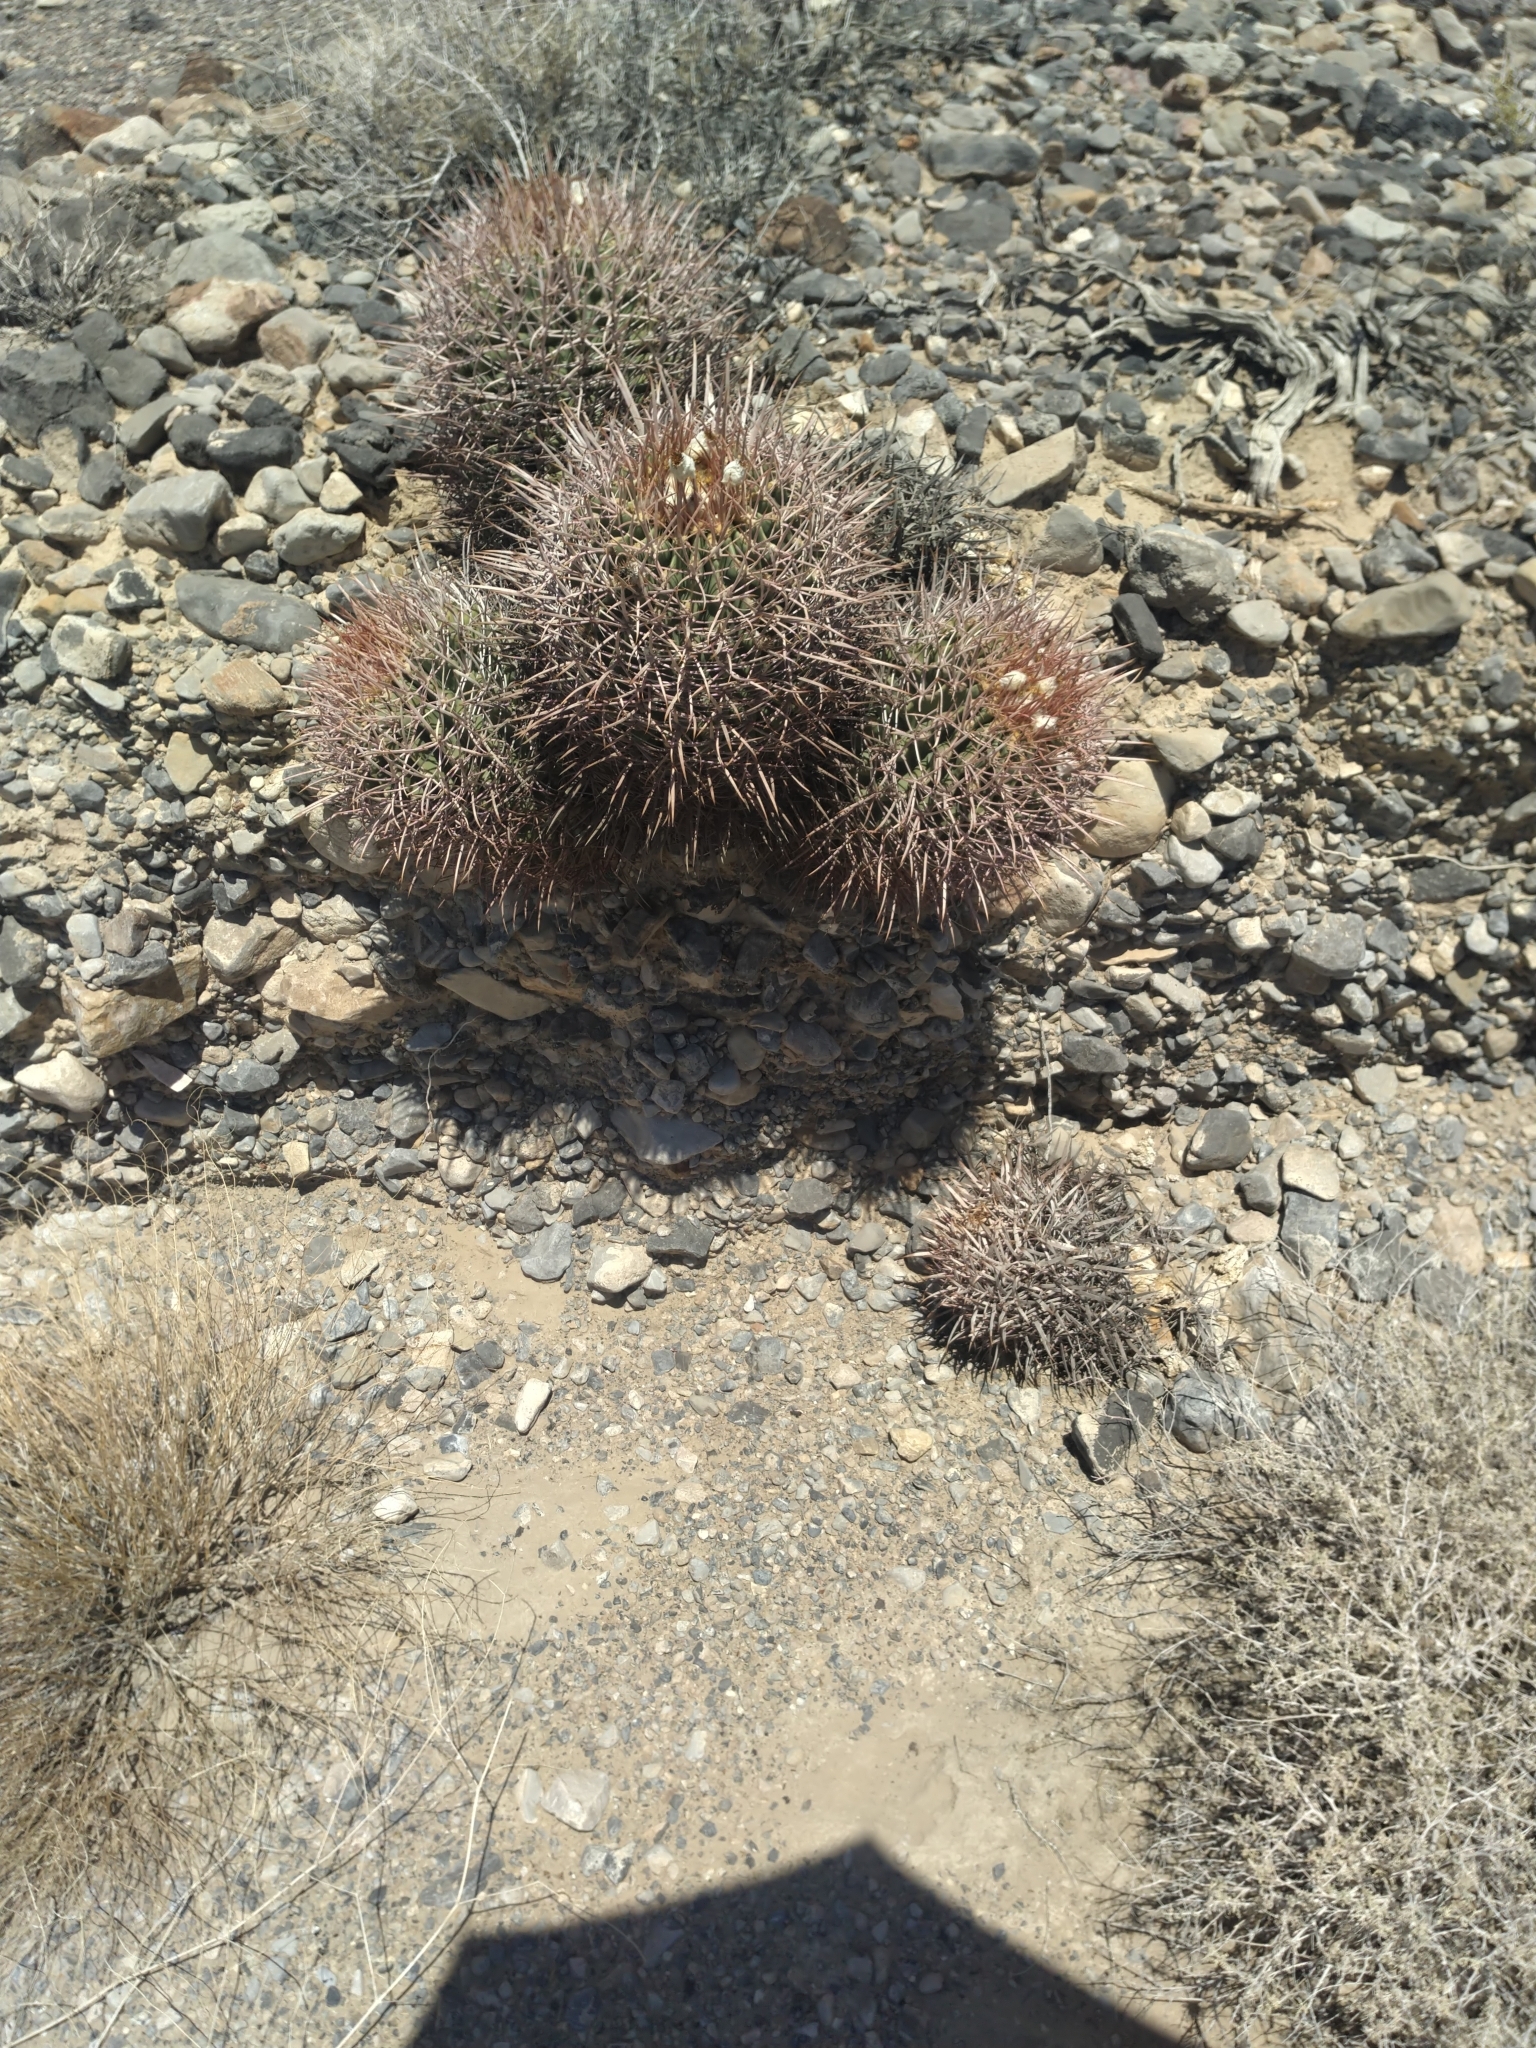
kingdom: Plantae
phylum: Tracheophyta
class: Magnoliopsida
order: Caryophyllales
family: Cactaceae
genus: Echinocactus
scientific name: Echinocactus polycephalus
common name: Cottontop cactus
